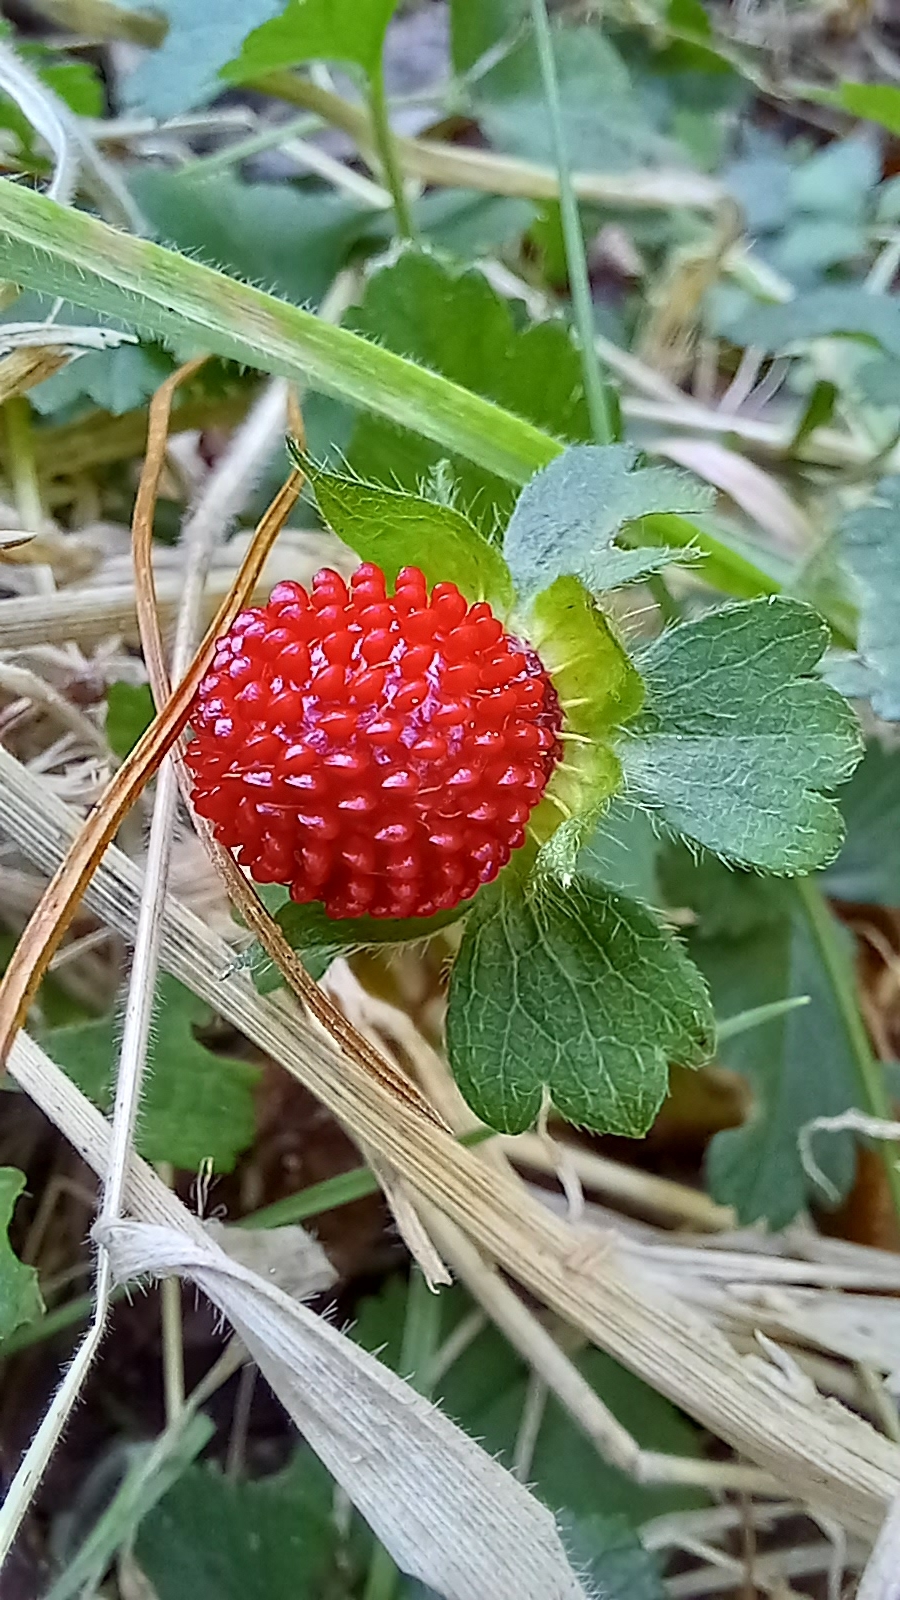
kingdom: Plantae
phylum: Tracheophyta
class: Magnoliopsida
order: Rosales
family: Rosaceae
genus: Potentilla
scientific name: Potentilla indica
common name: Yellow-flowered strawberry
